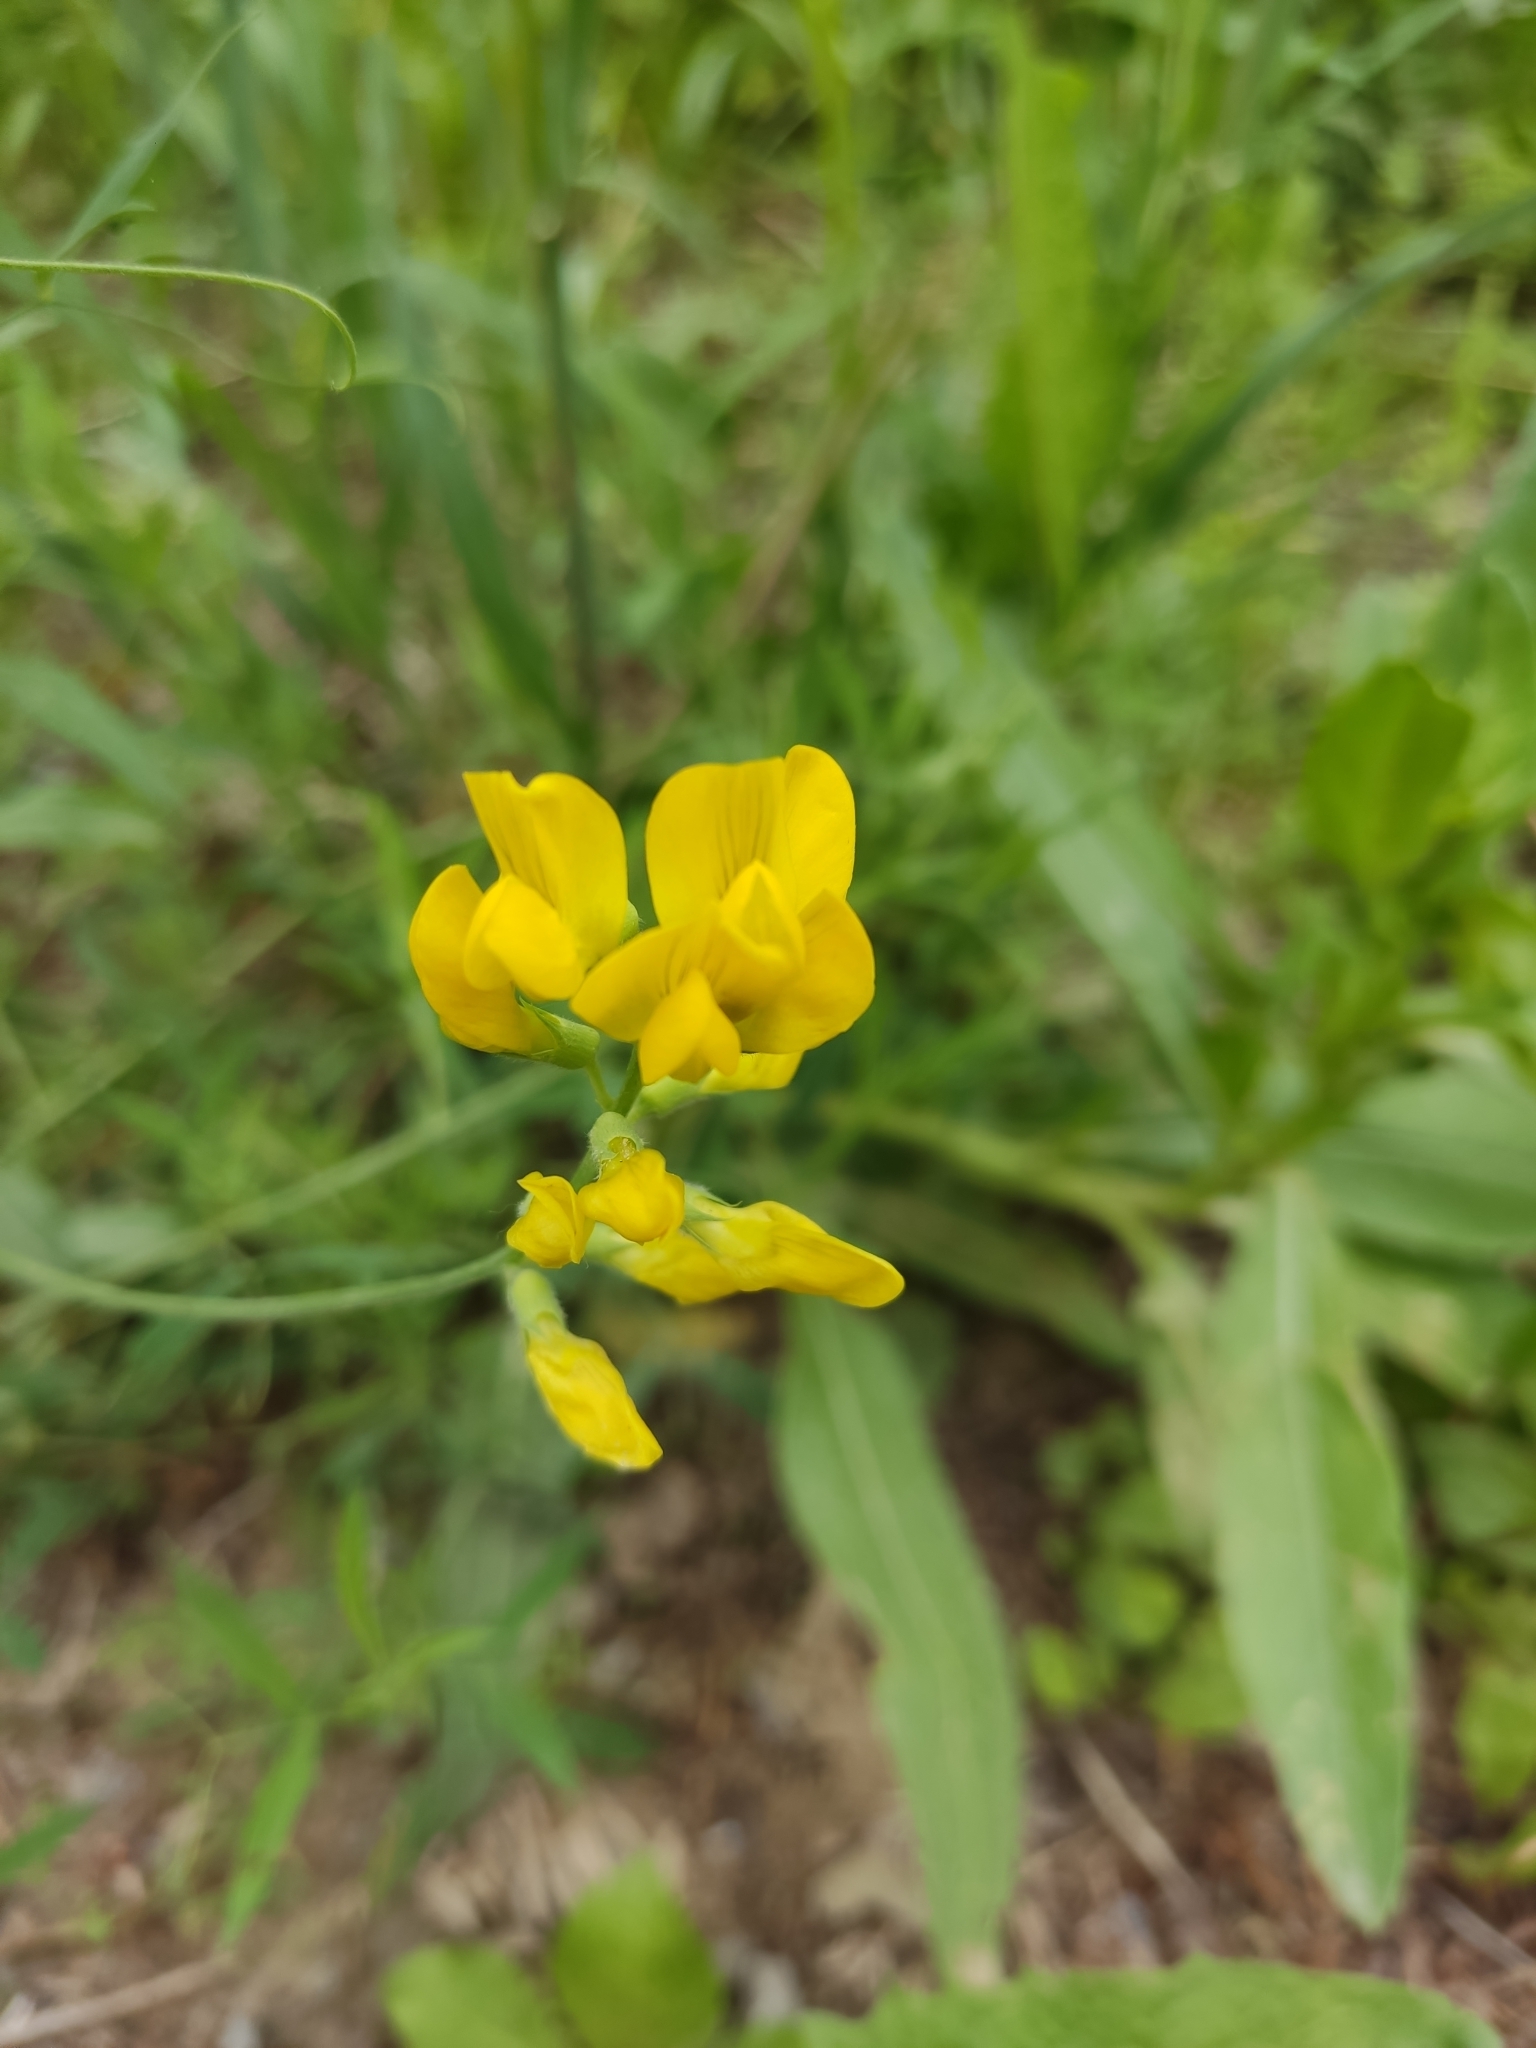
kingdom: Plantae
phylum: Tracheophyta
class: Magnoliopsida
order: Fabales
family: Fabaceae
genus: Lathyrus
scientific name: Lathyrus pratensis
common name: Meadow vetchling
